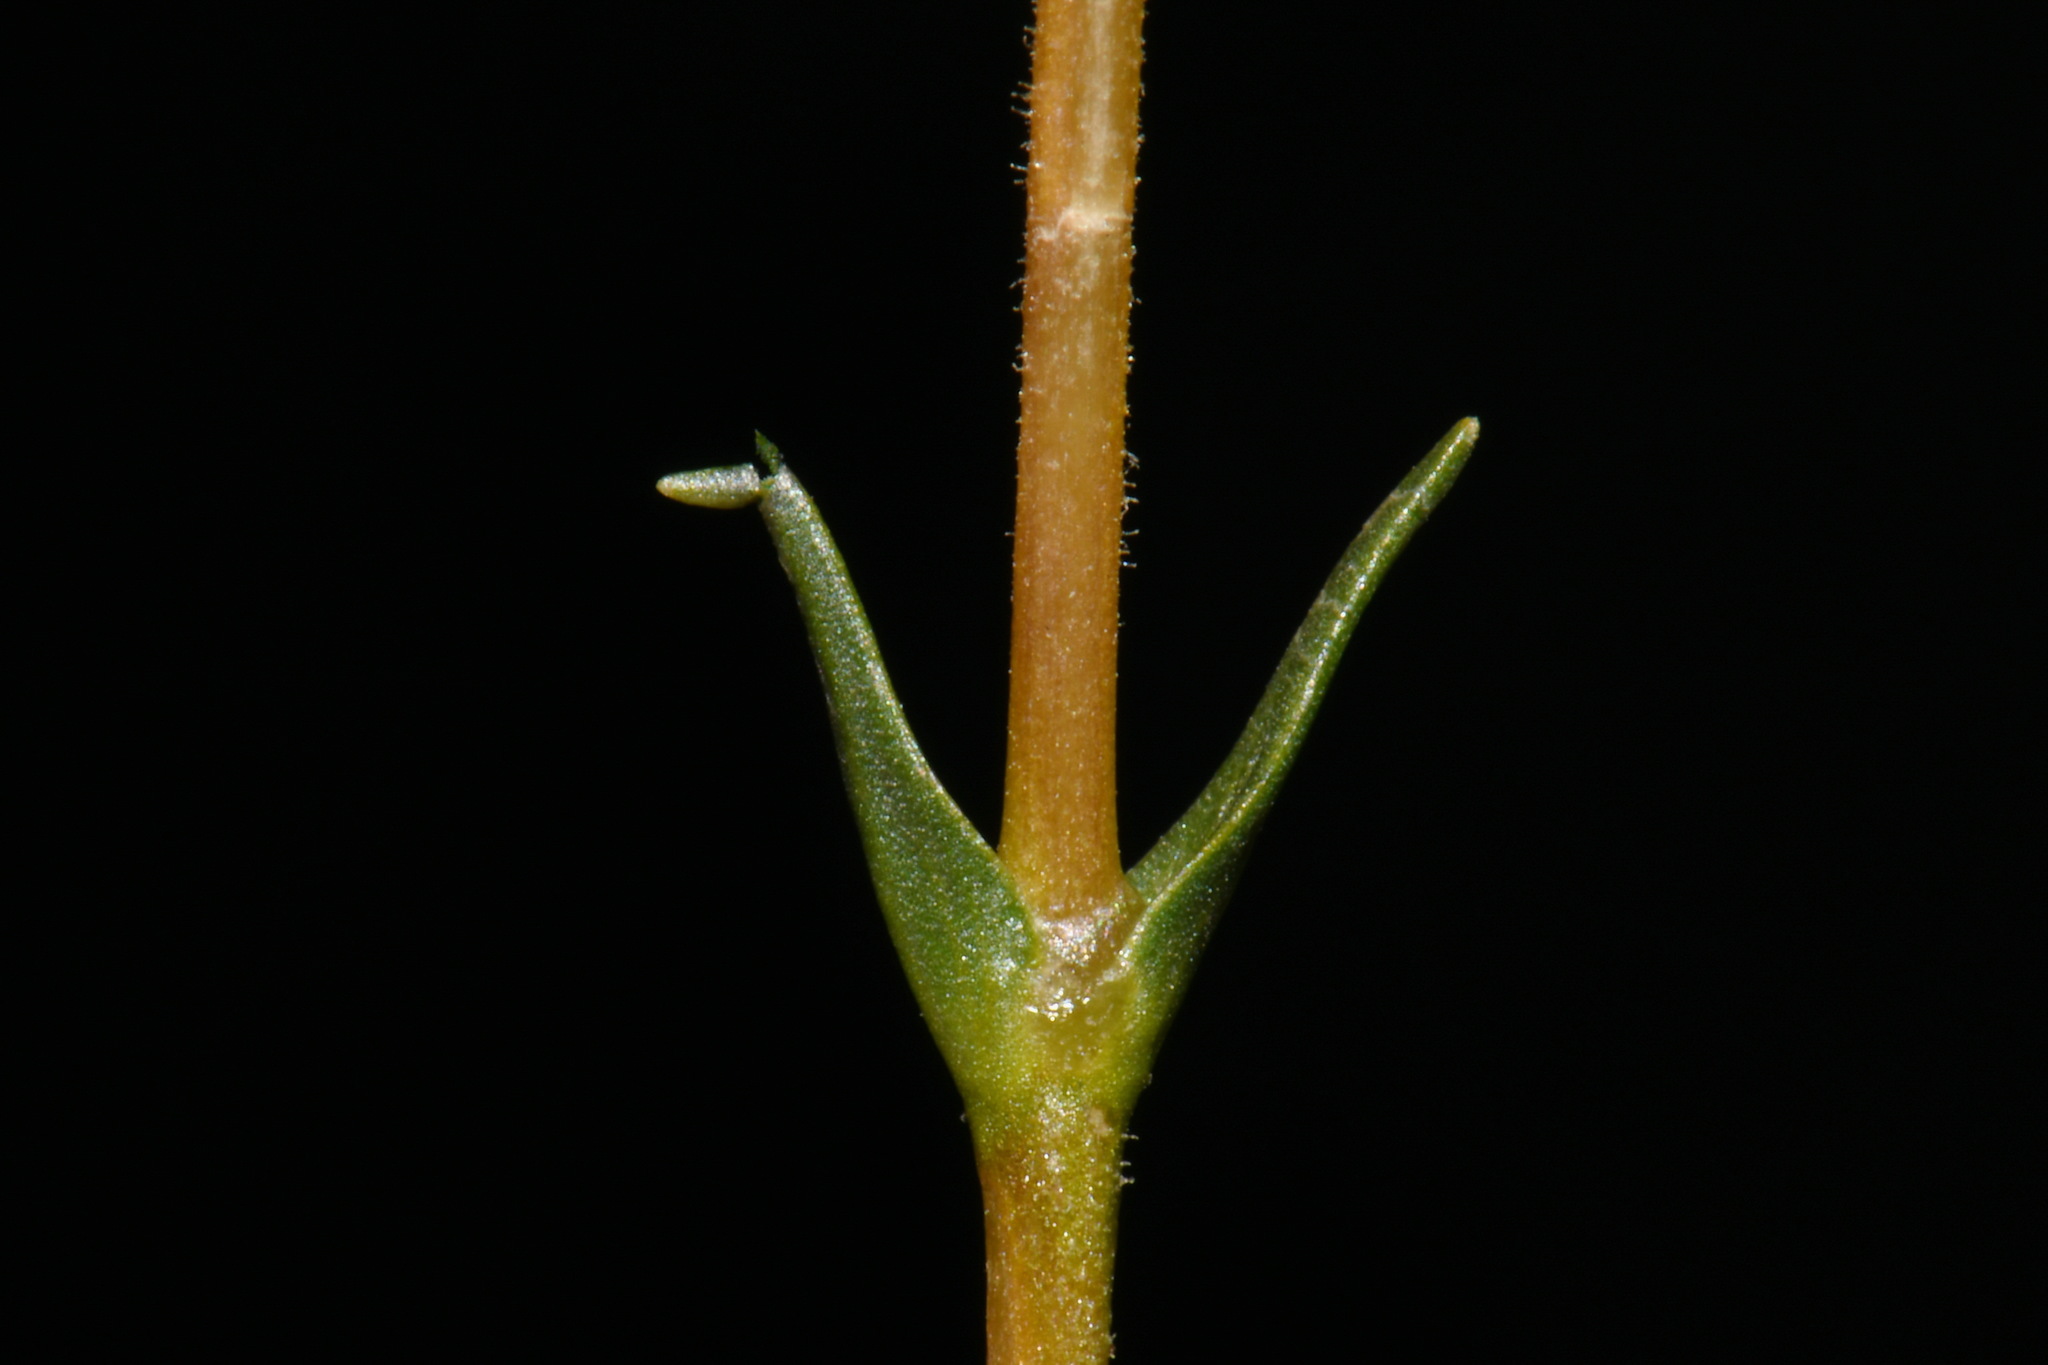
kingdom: Plantae
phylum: Tracheophyta
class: Magnoliopsida
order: Caryophyllales
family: Caryophyllaceae
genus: Geocarpon
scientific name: Geocarpon carolinianum
